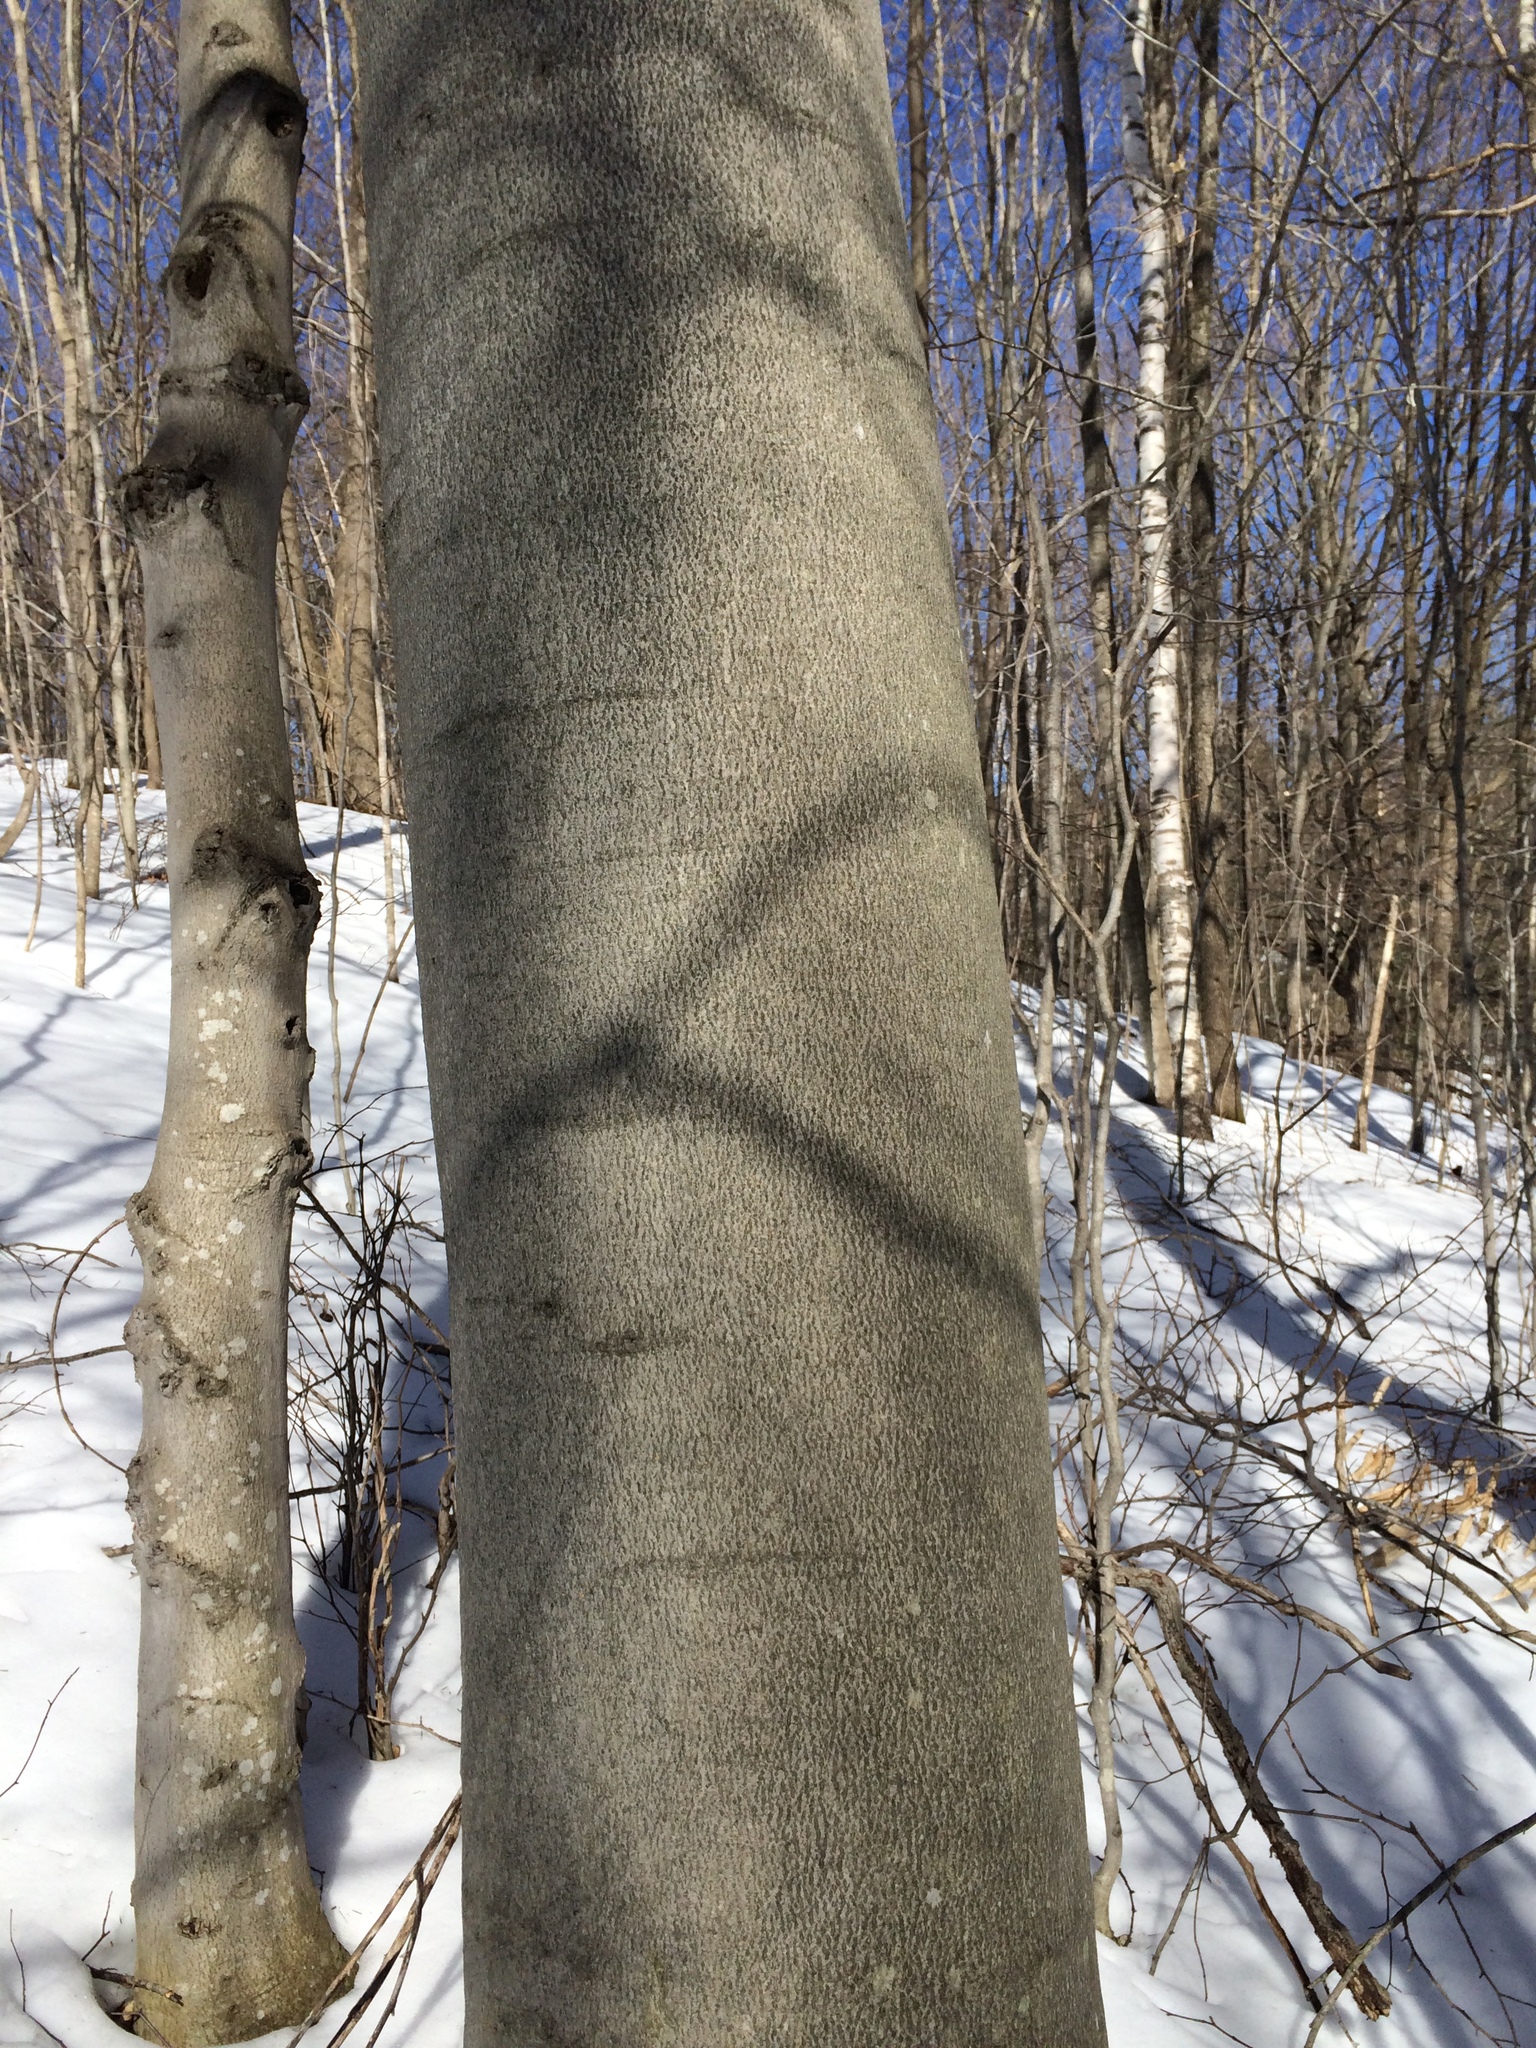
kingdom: Plantae
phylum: Tracheophyta
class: Magnoliopsida
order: Fagales
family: Fagaceae
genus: Fagus
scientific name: Fagus grandifolia
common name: American beech
